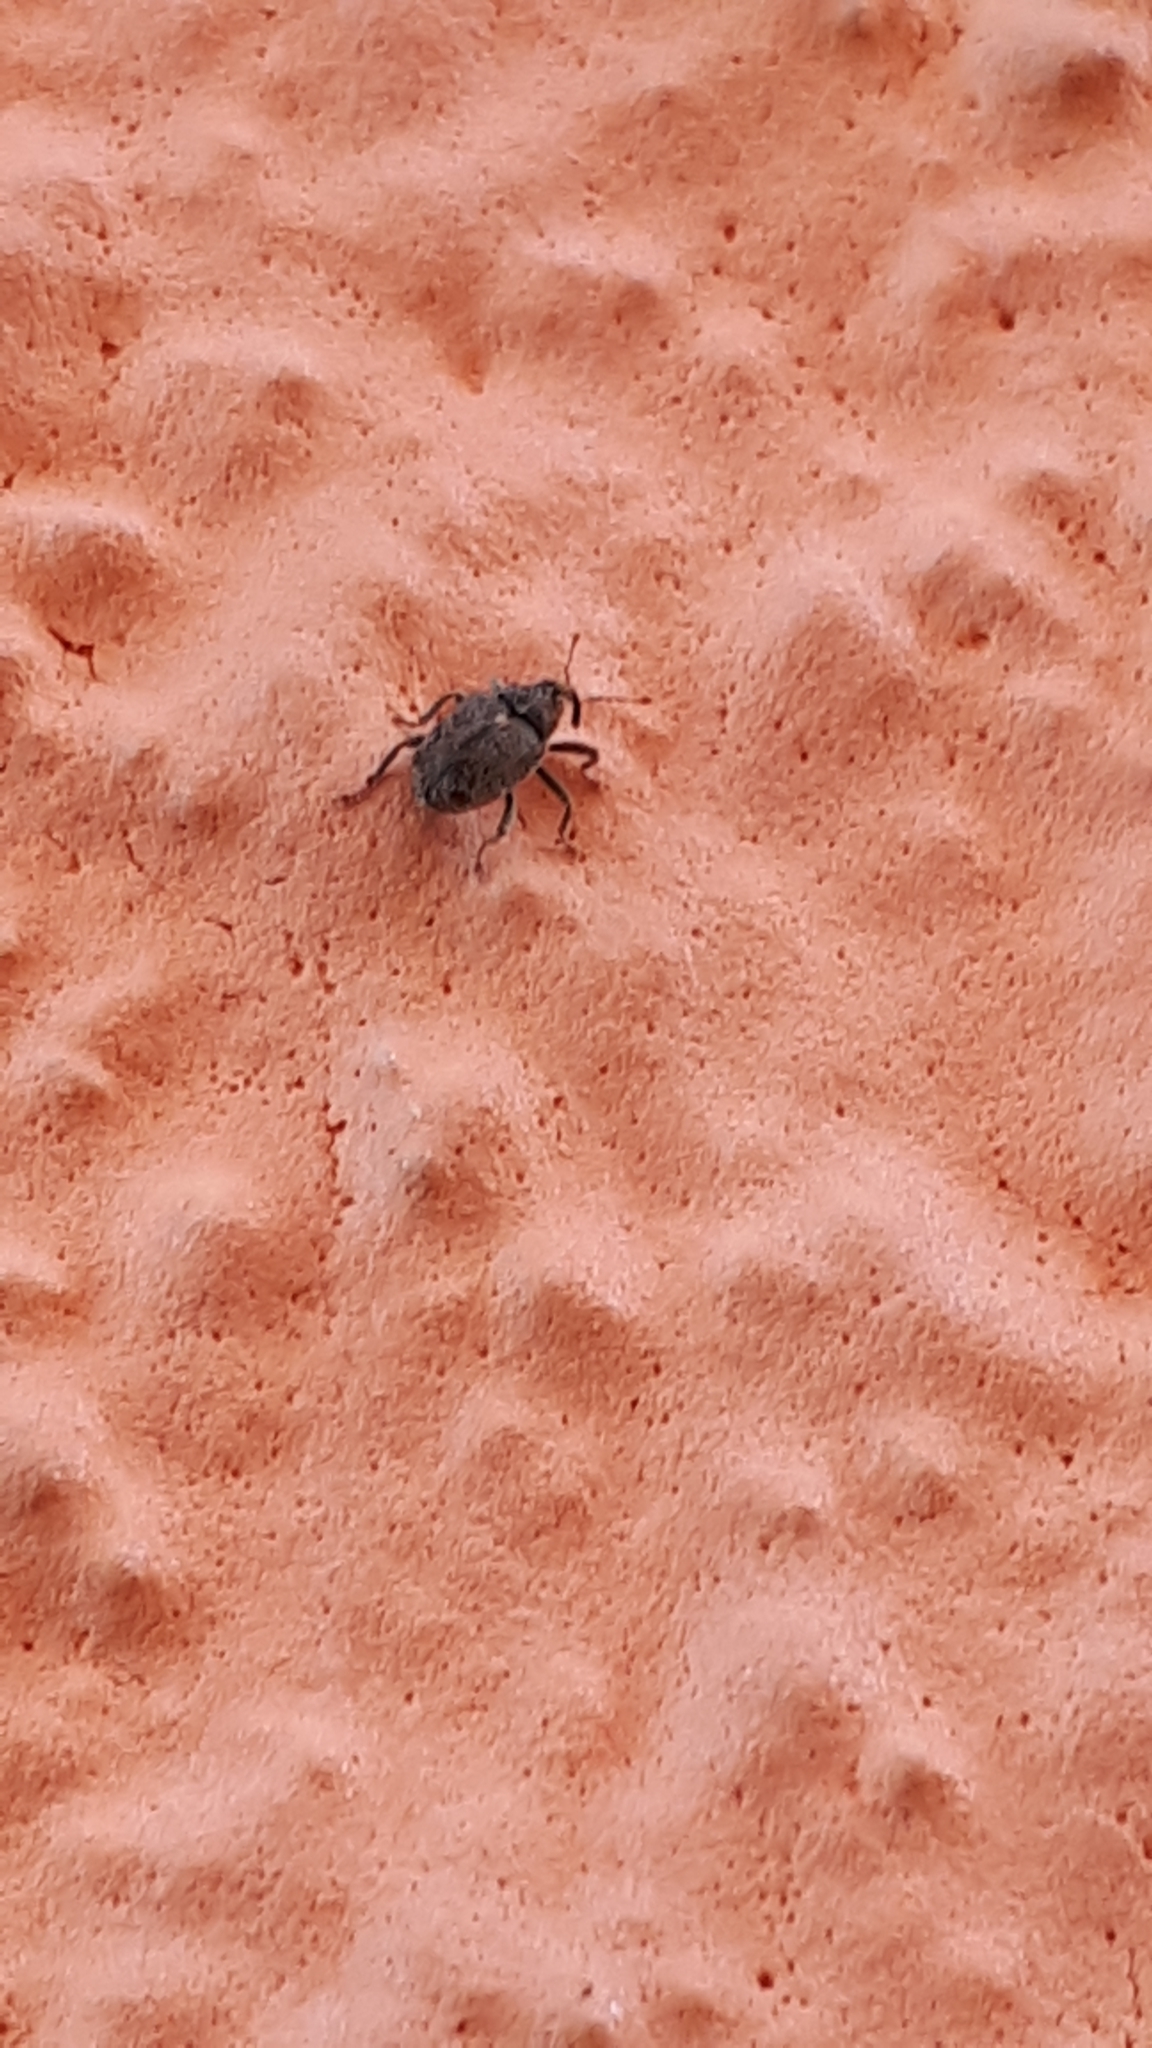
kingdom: Animalia
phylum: Arthropoda
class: Insecta
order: Coleoptera
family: Curculionidae
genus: Ceutorhynchus
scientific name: Ceutorhynchus pallidactylus
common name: Cabbage stem weavil
